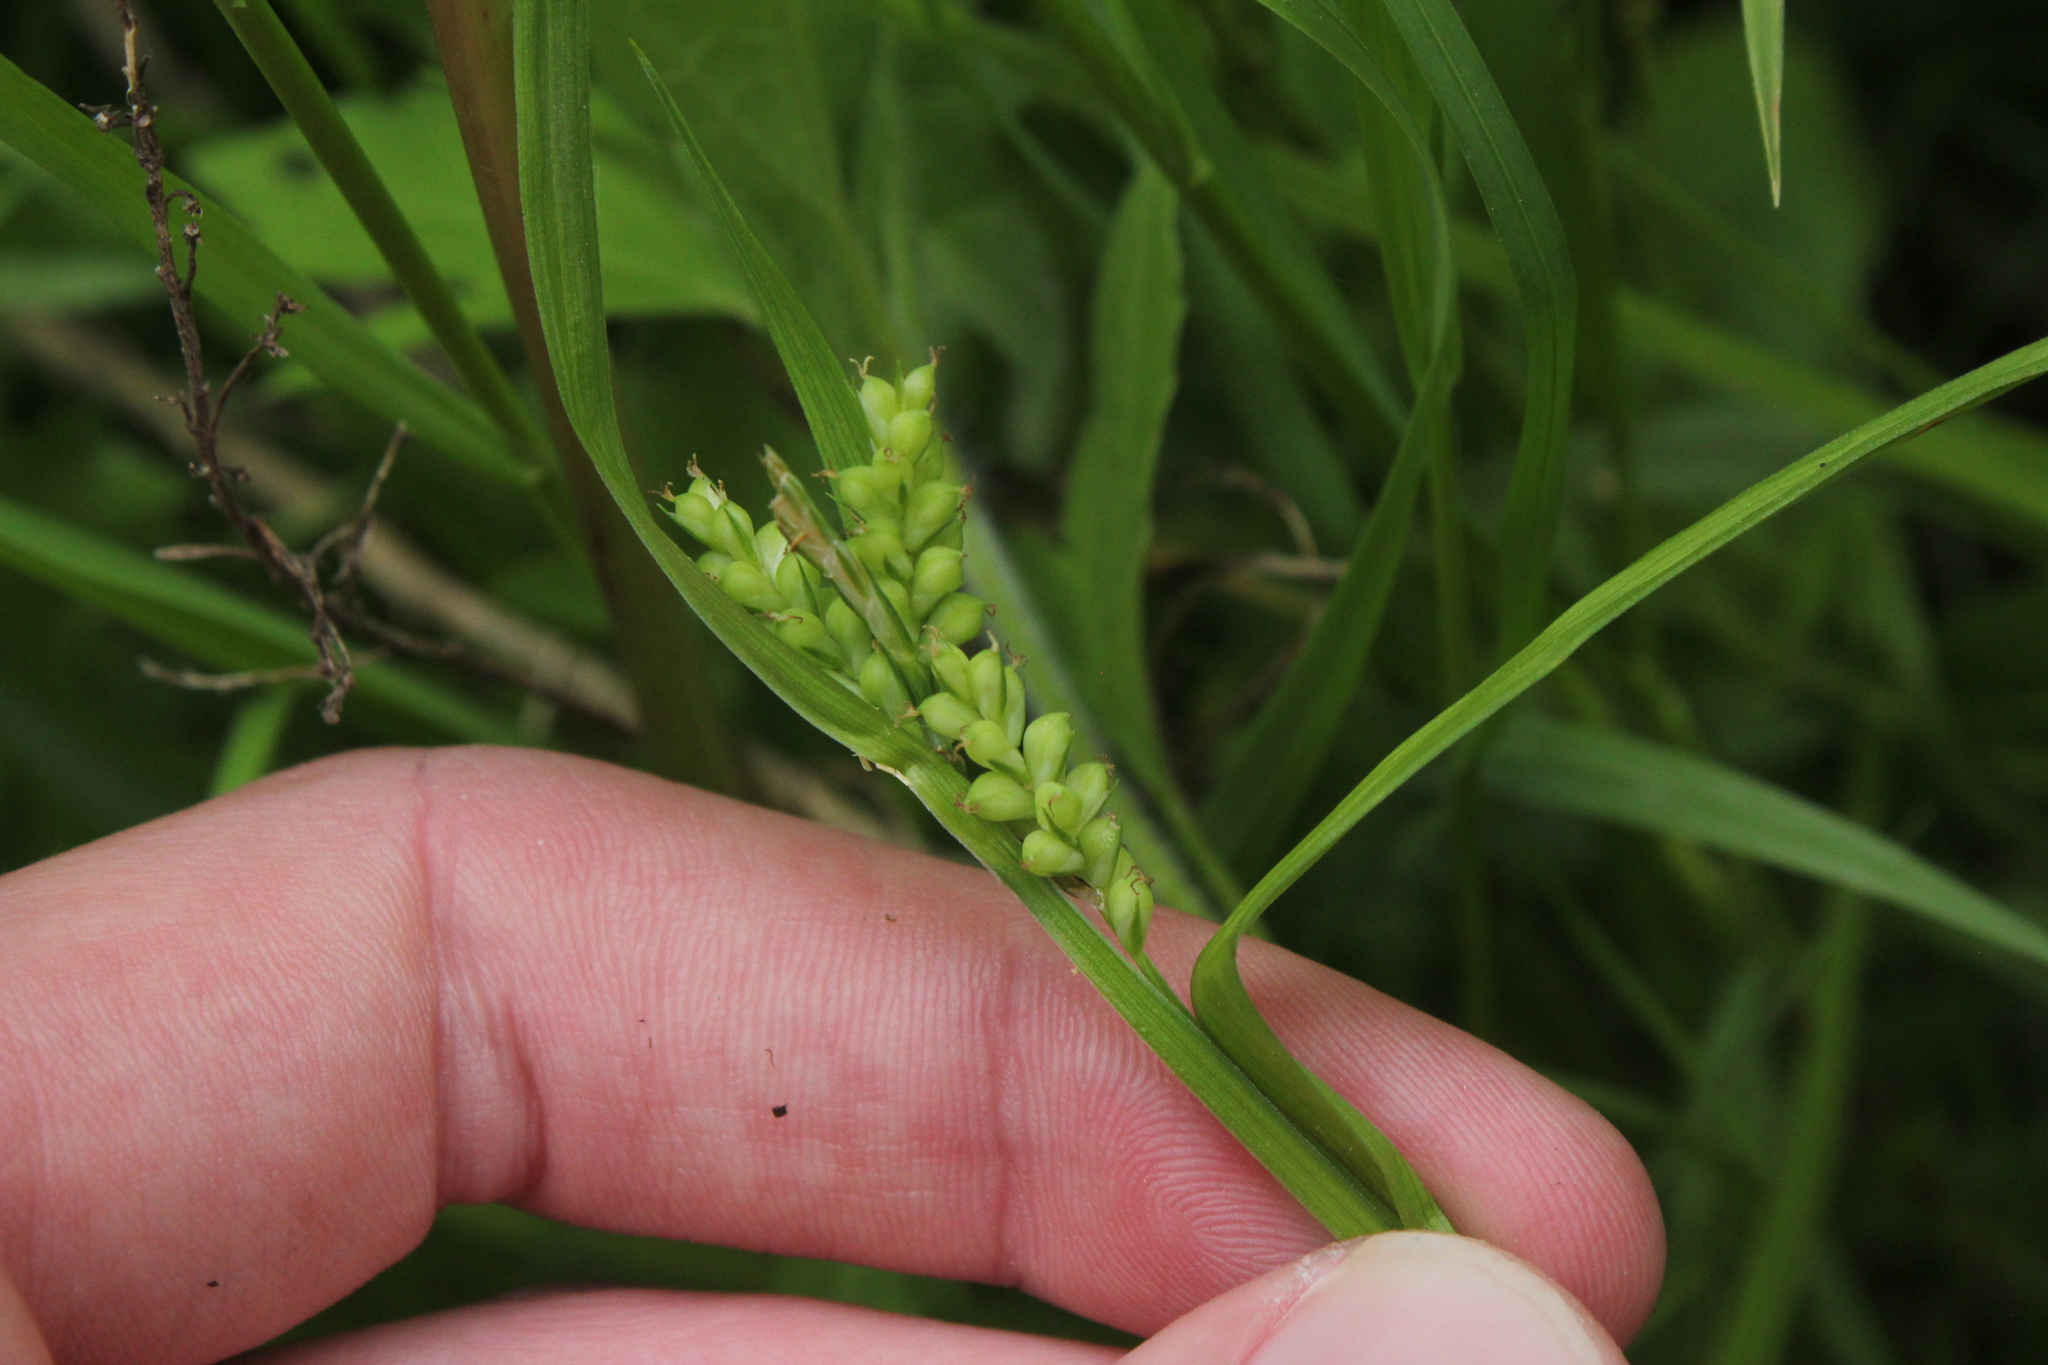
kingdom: Plantae
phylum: Tracheophyta
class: Liliopsida
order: Poales
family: Cyperaceae
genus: Carex
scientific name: Carex granularis
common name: Granular sedge
